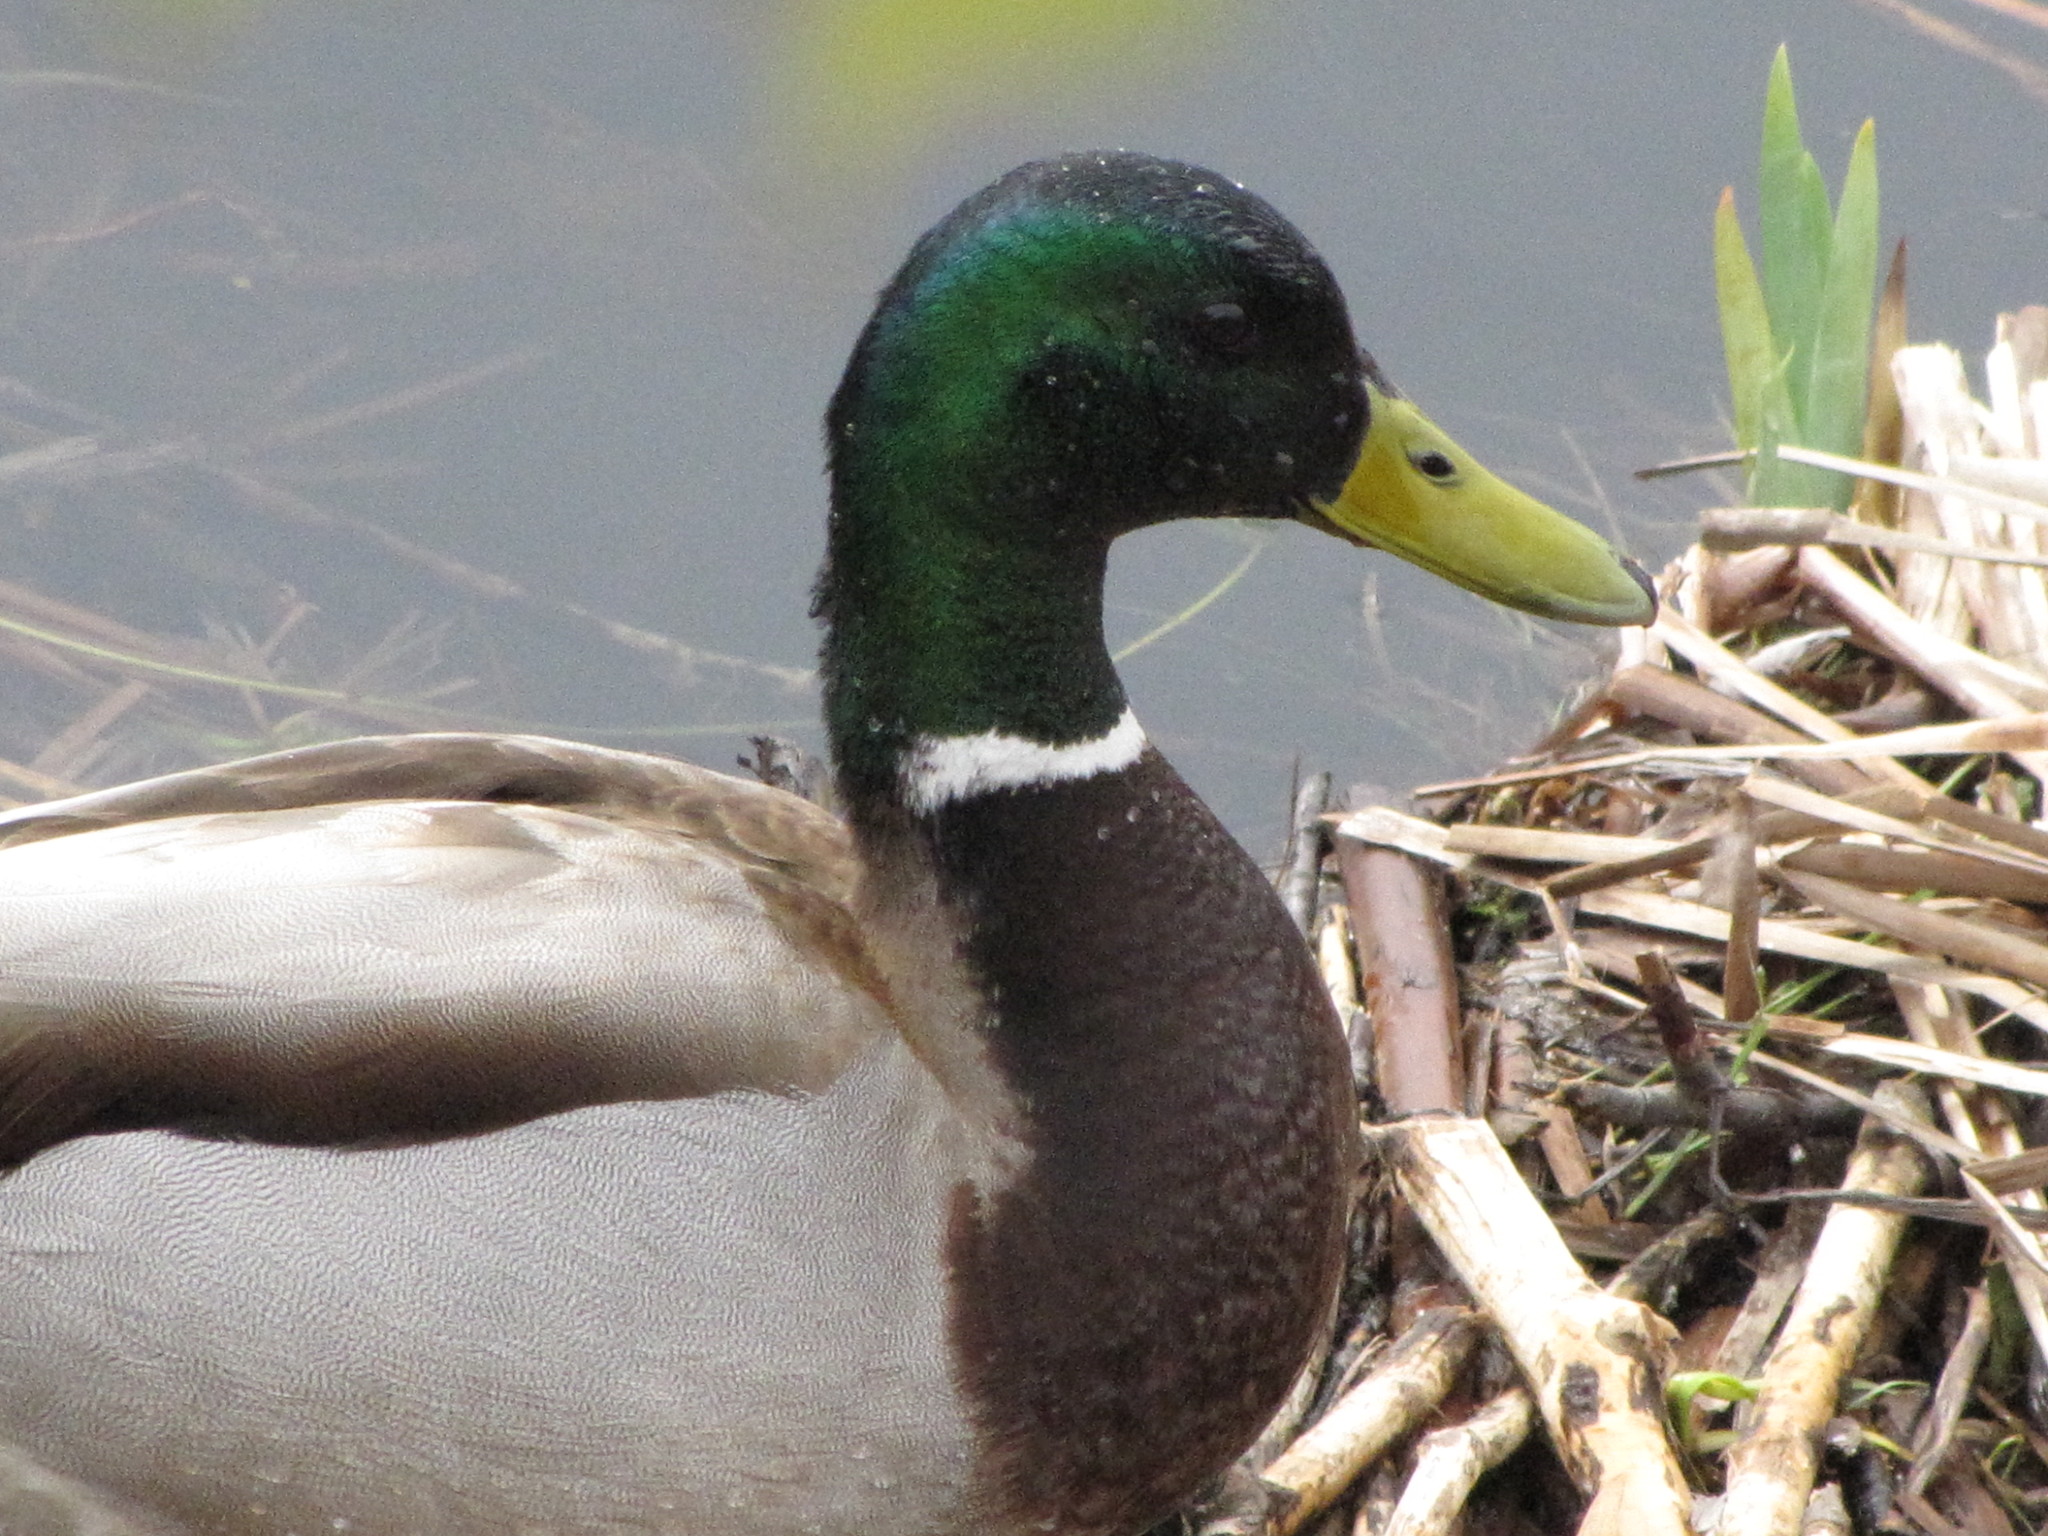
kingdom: Animalia
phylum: Chordata
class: Aves
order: Anseriformes
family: Anatidae
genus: Anas
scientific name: Anas platyrhynchos
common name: Mallard
